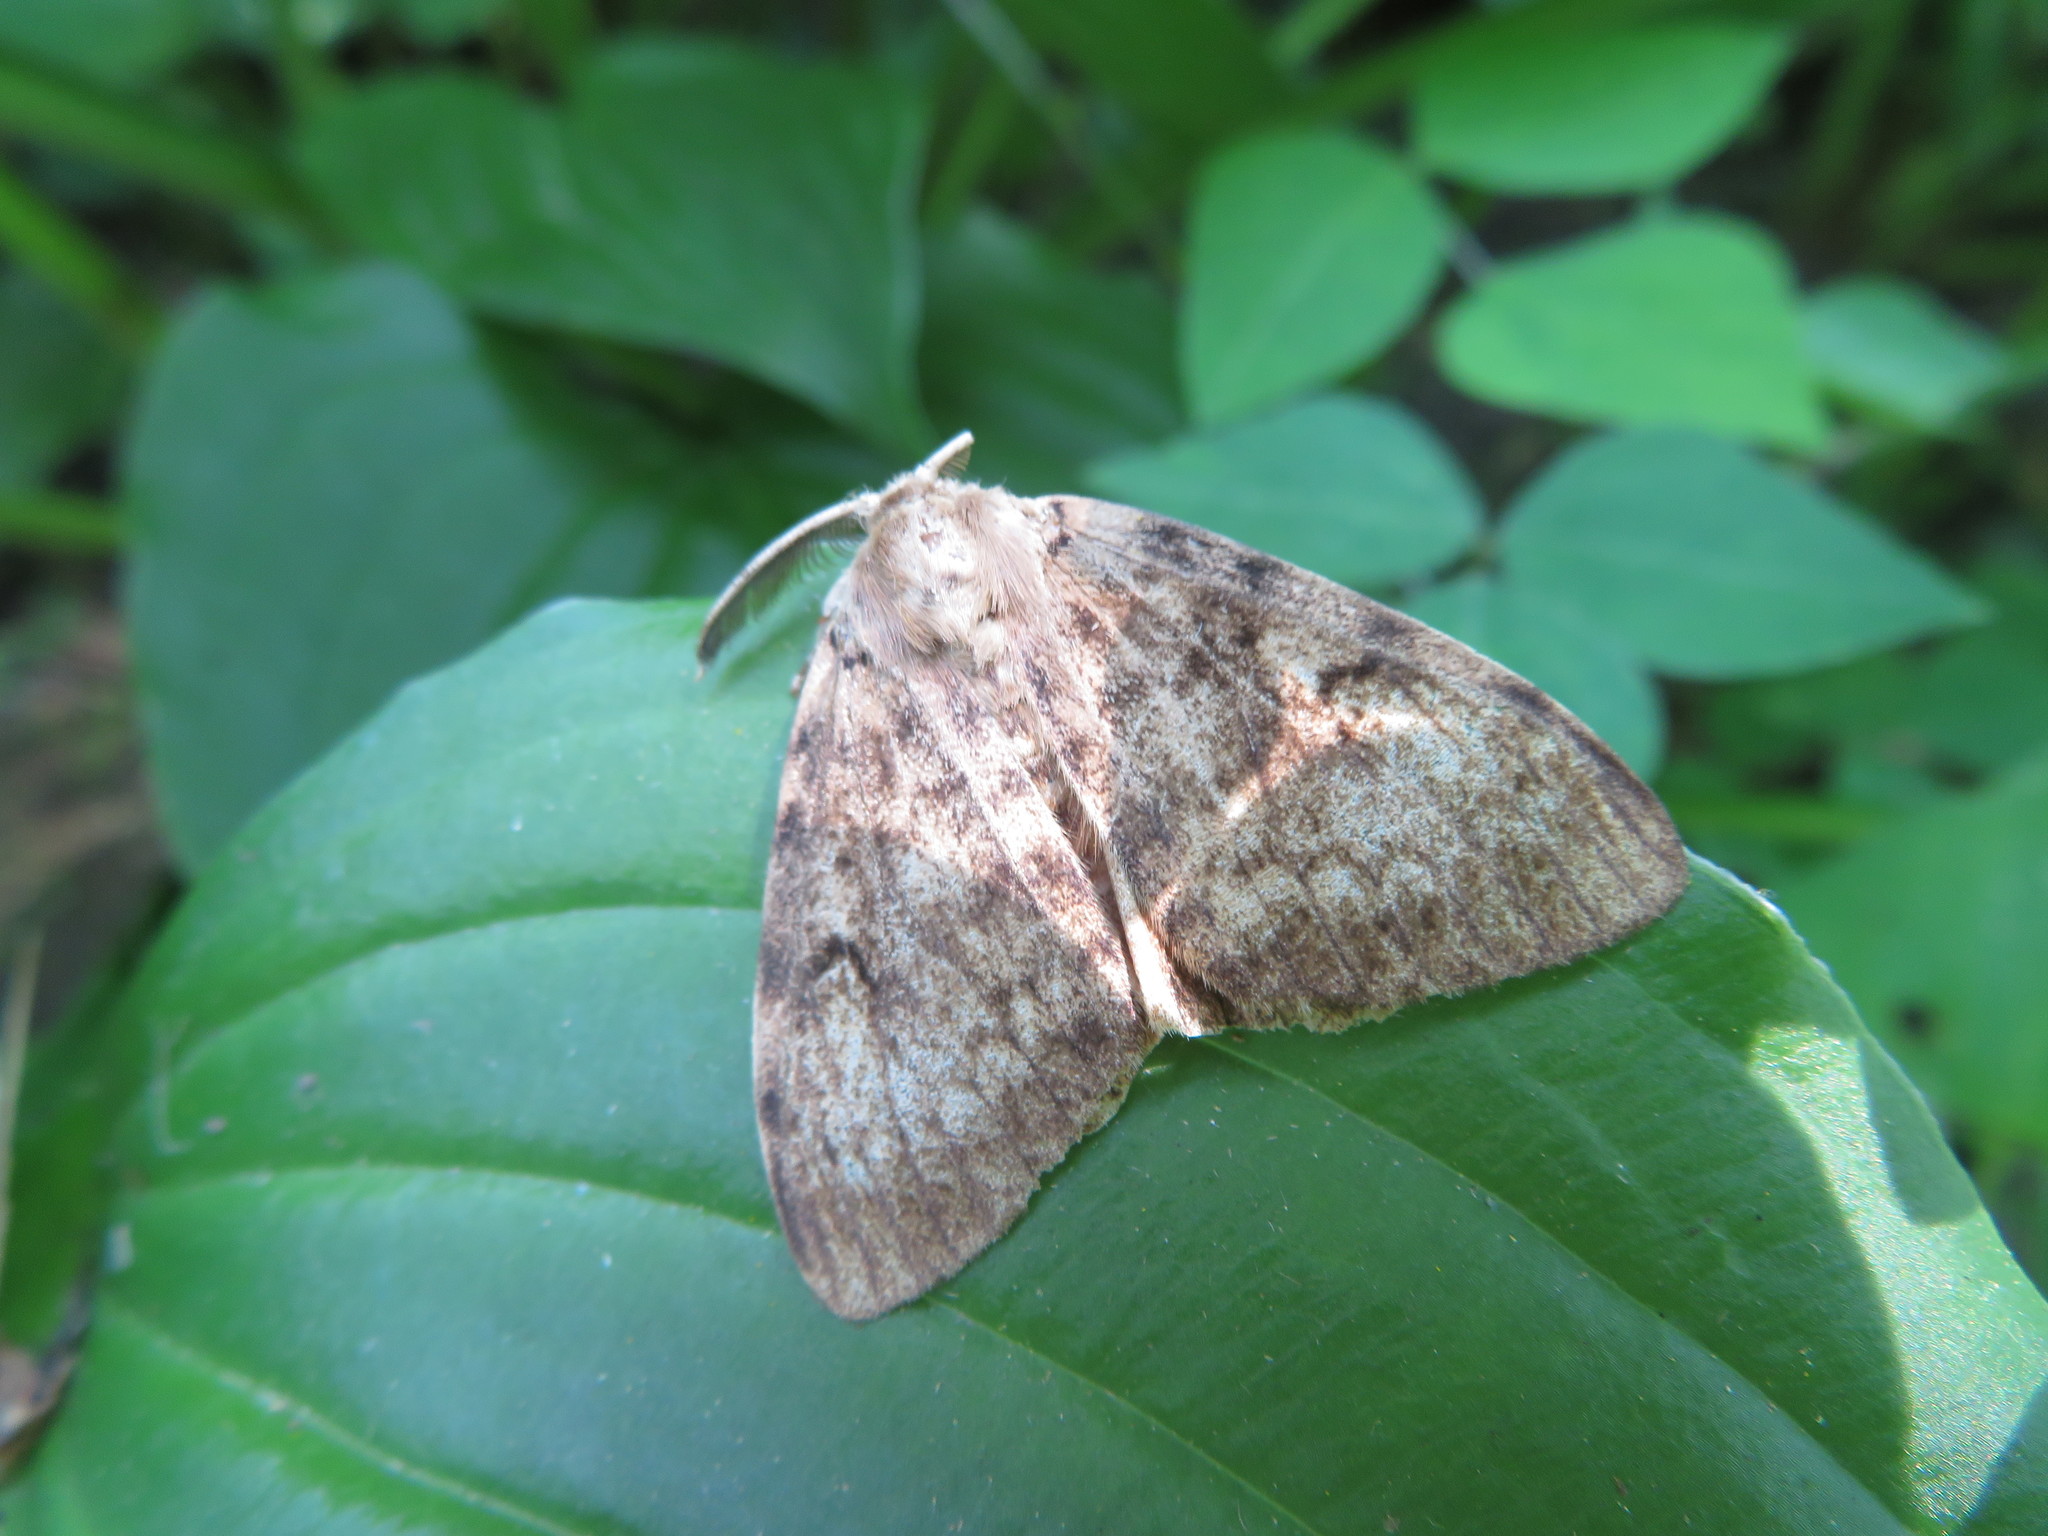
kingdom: Animalia
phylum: Arthropoda
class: Insecta
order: Lepidoptera
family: Erebidae
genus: Lymantria
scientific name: Lymantria dispar
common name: Gypsy moth
